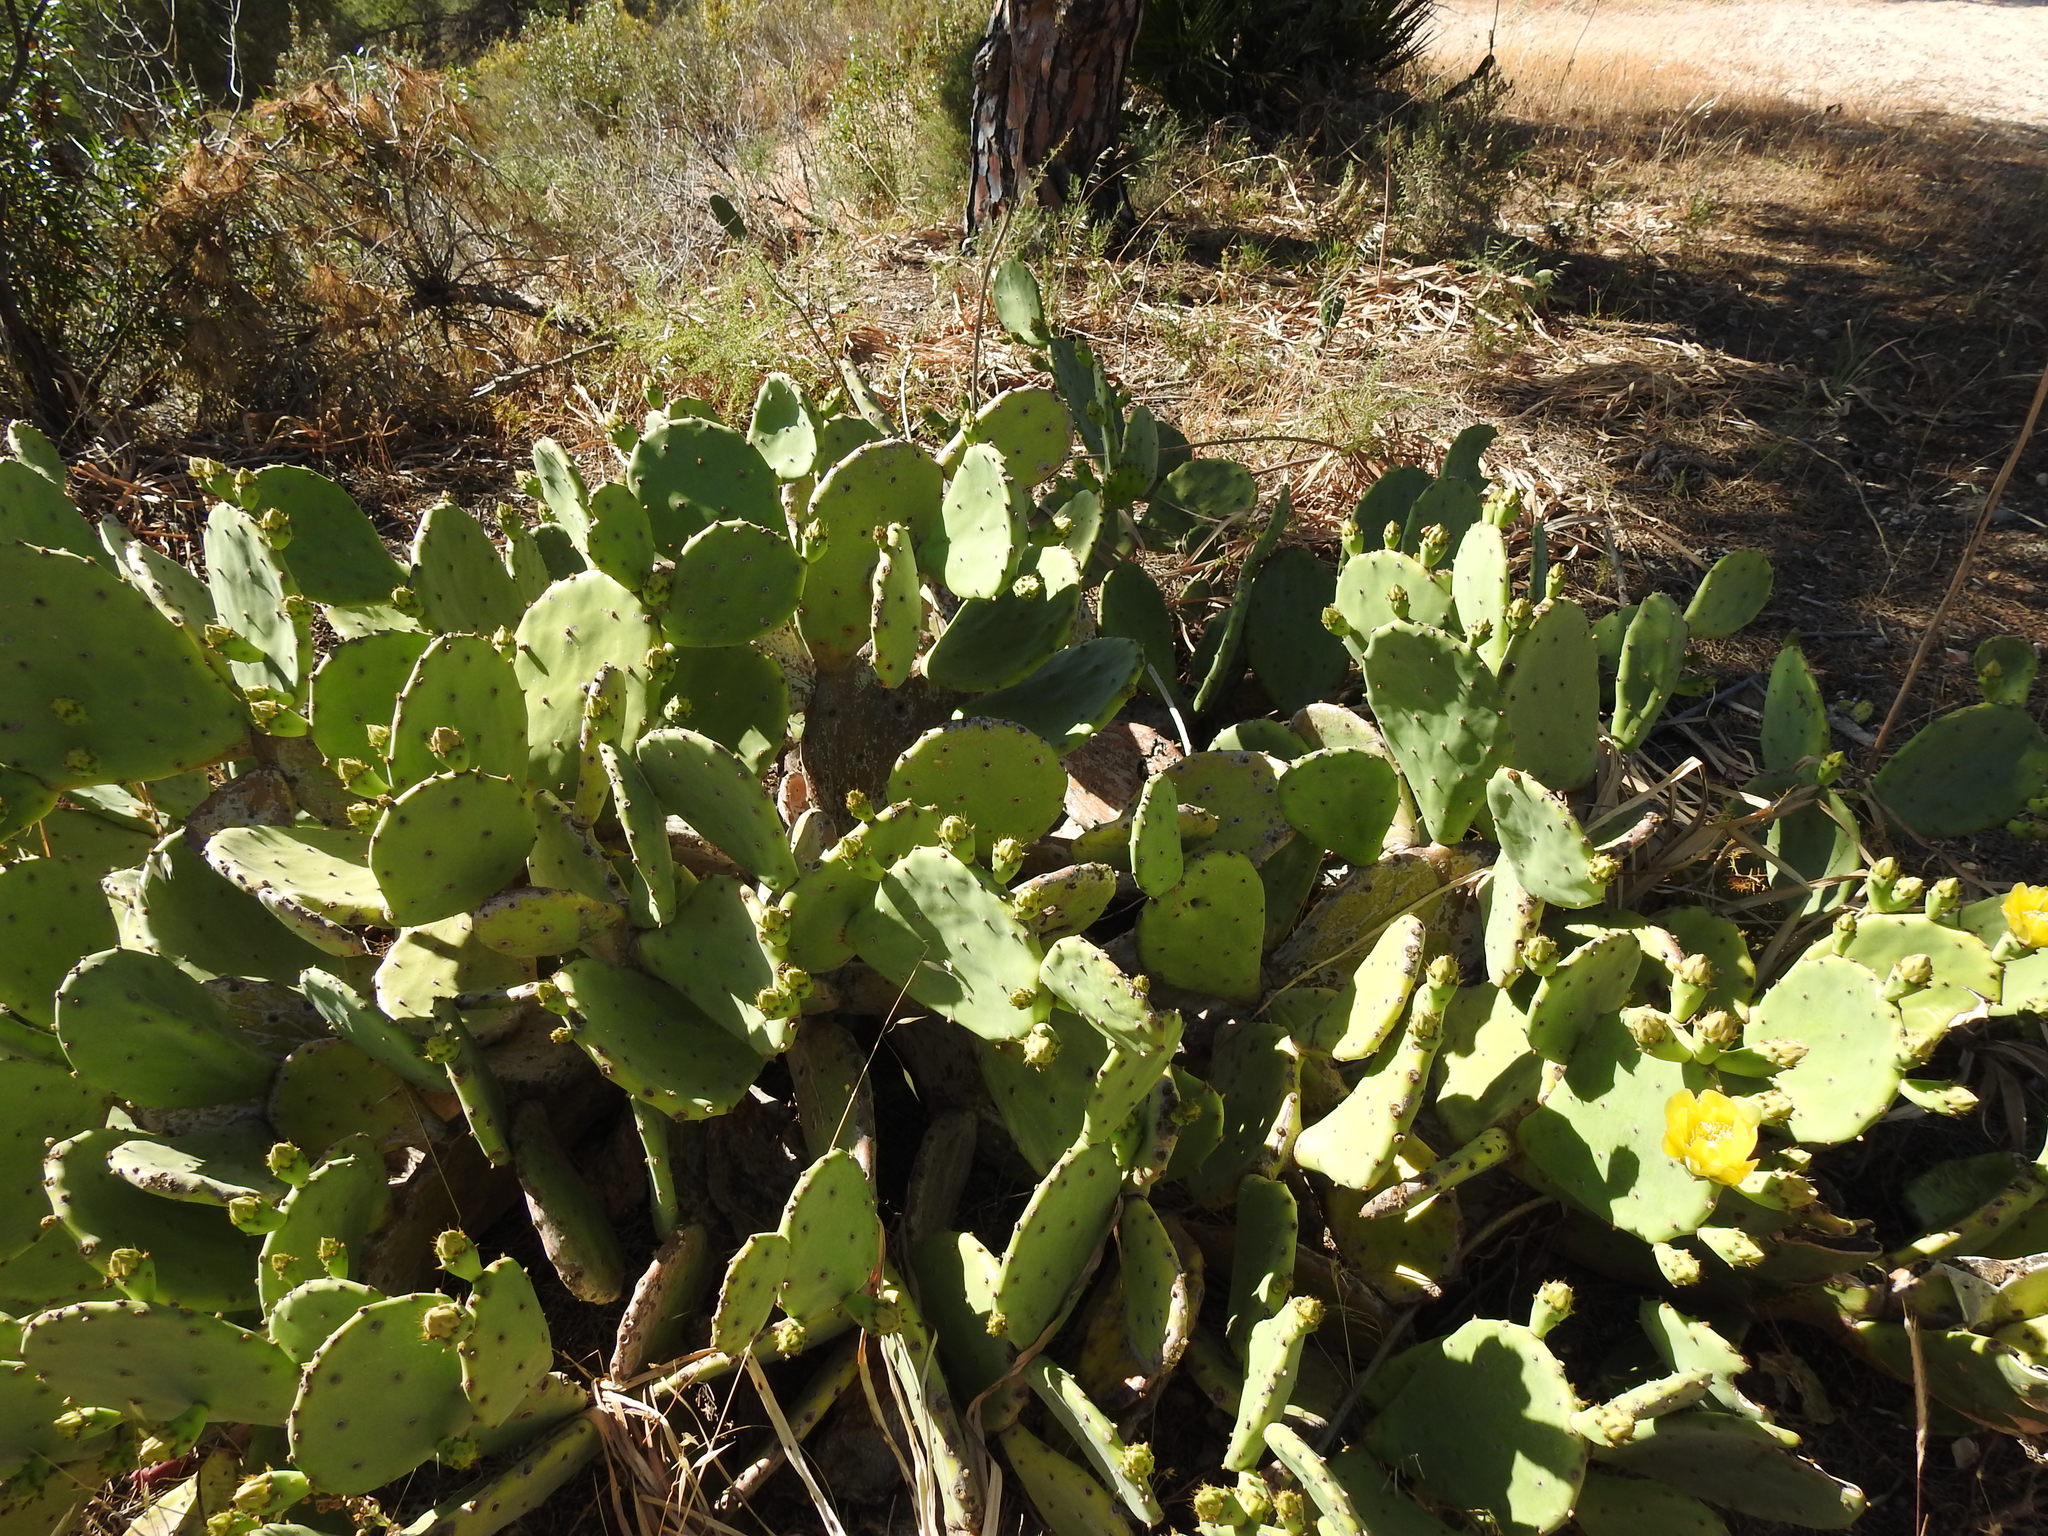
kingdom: Plantae
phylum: Tracheophyta
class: Magnoliopsida
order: Caryophyllales
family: Cactaceae
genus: Opuntia
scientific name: Opuntia anahuacensis
